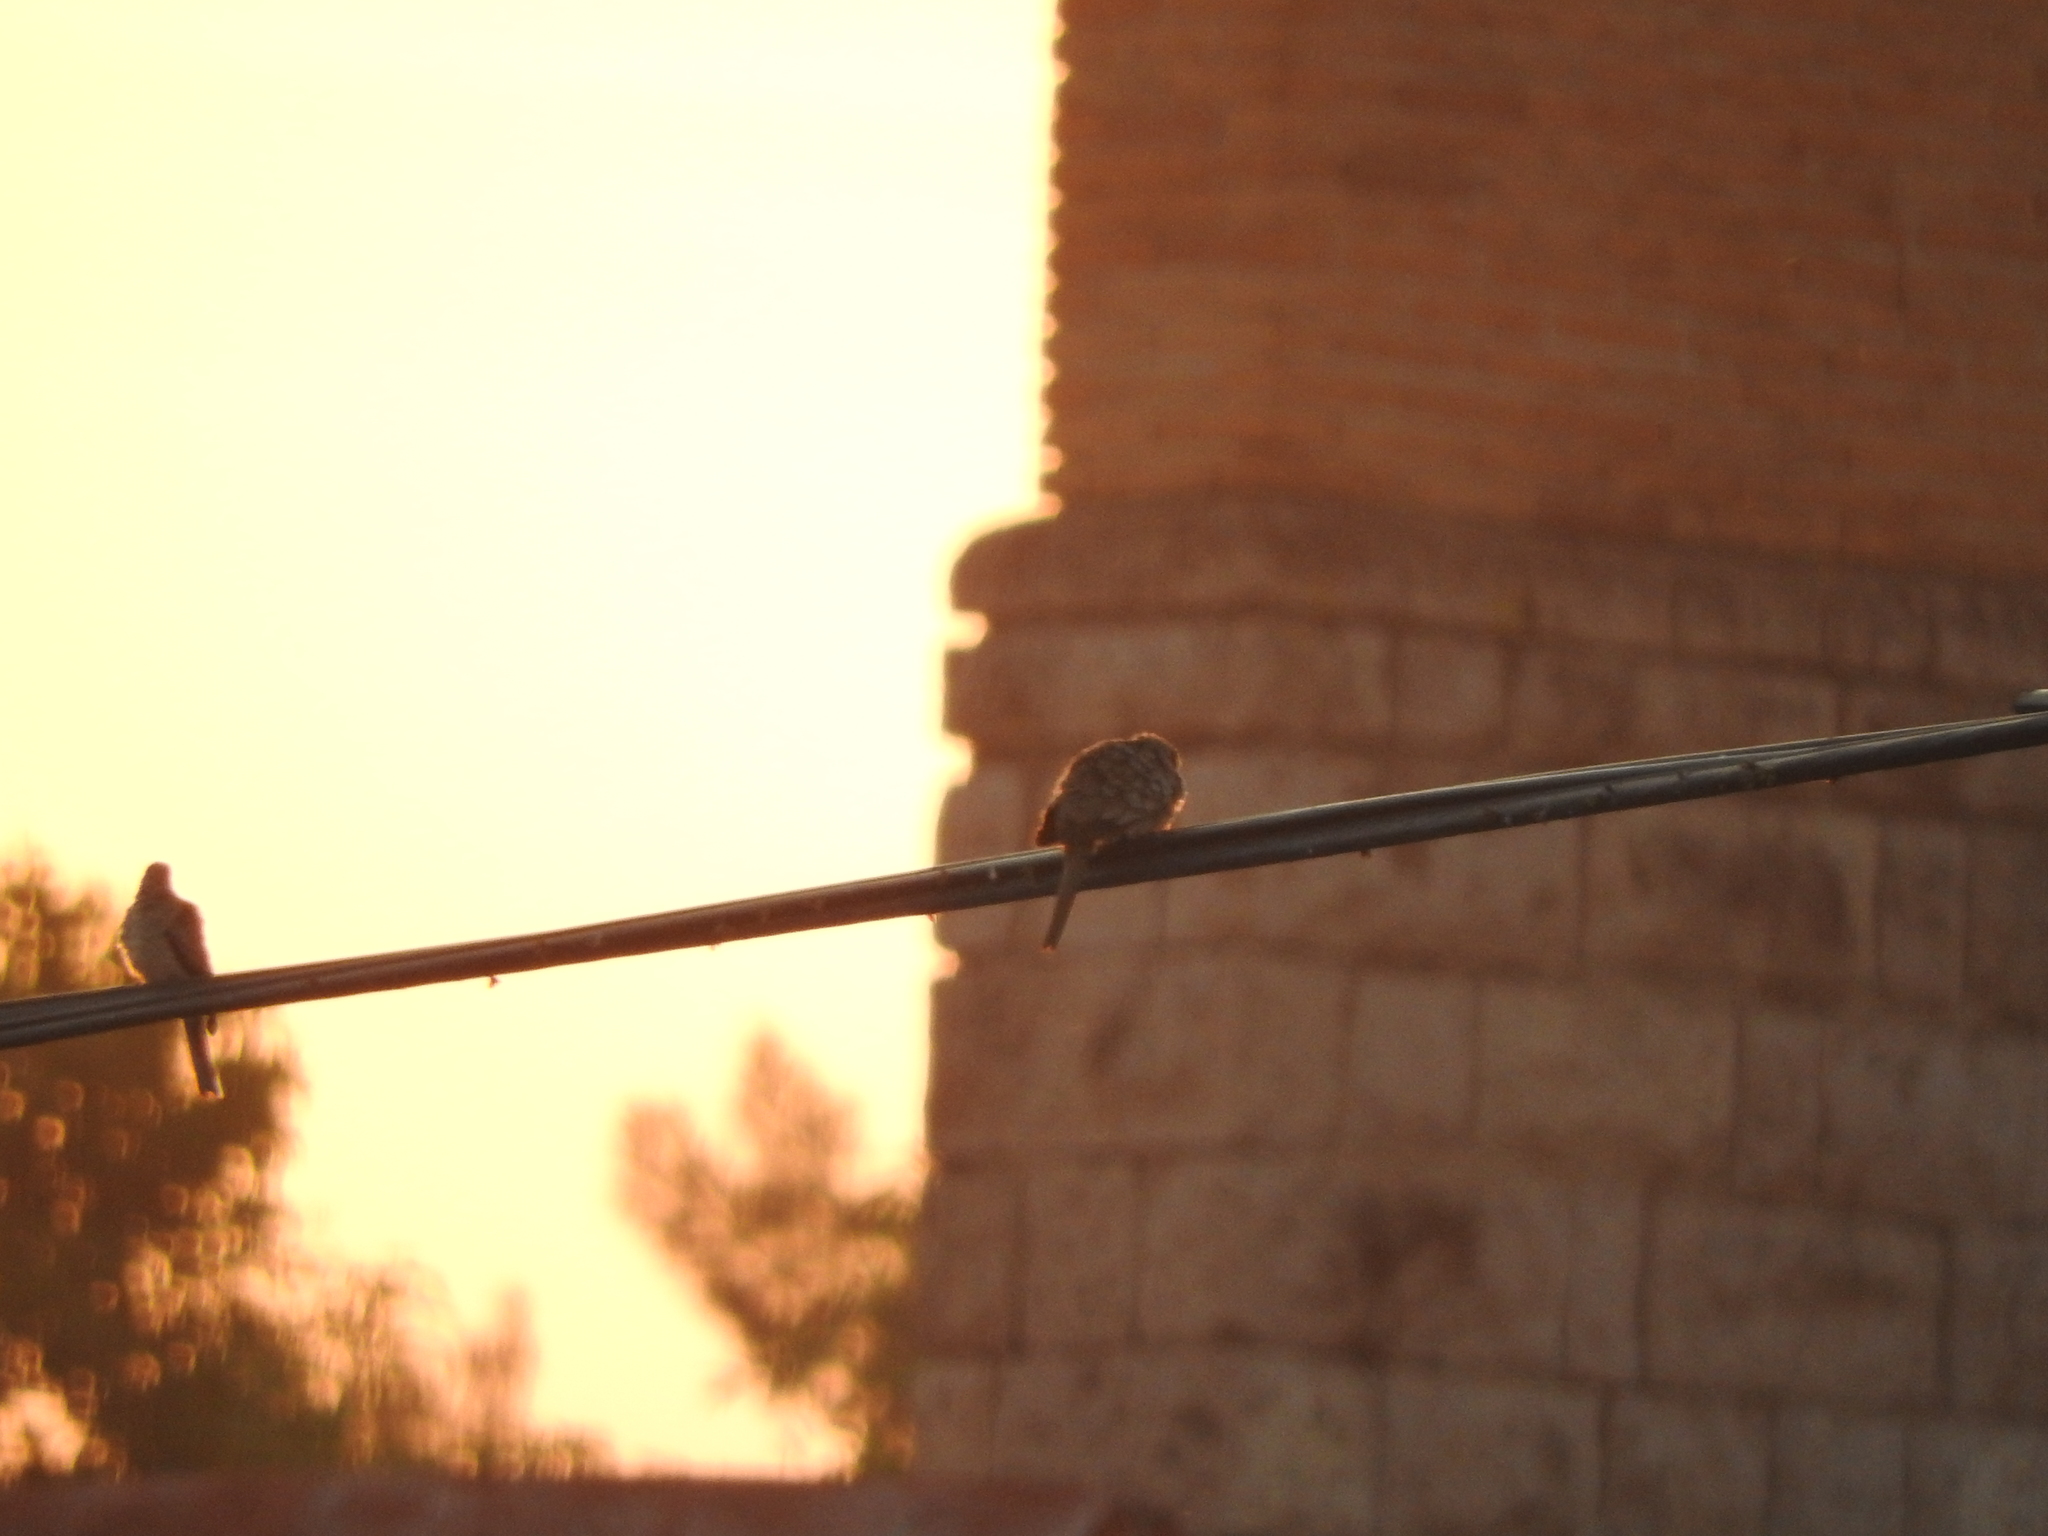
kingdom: Animalia
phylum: Chordata
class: Aves
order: Columbiformes
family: Columbidae
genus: Columbina
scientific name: Columbina inca
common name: Inca dove
